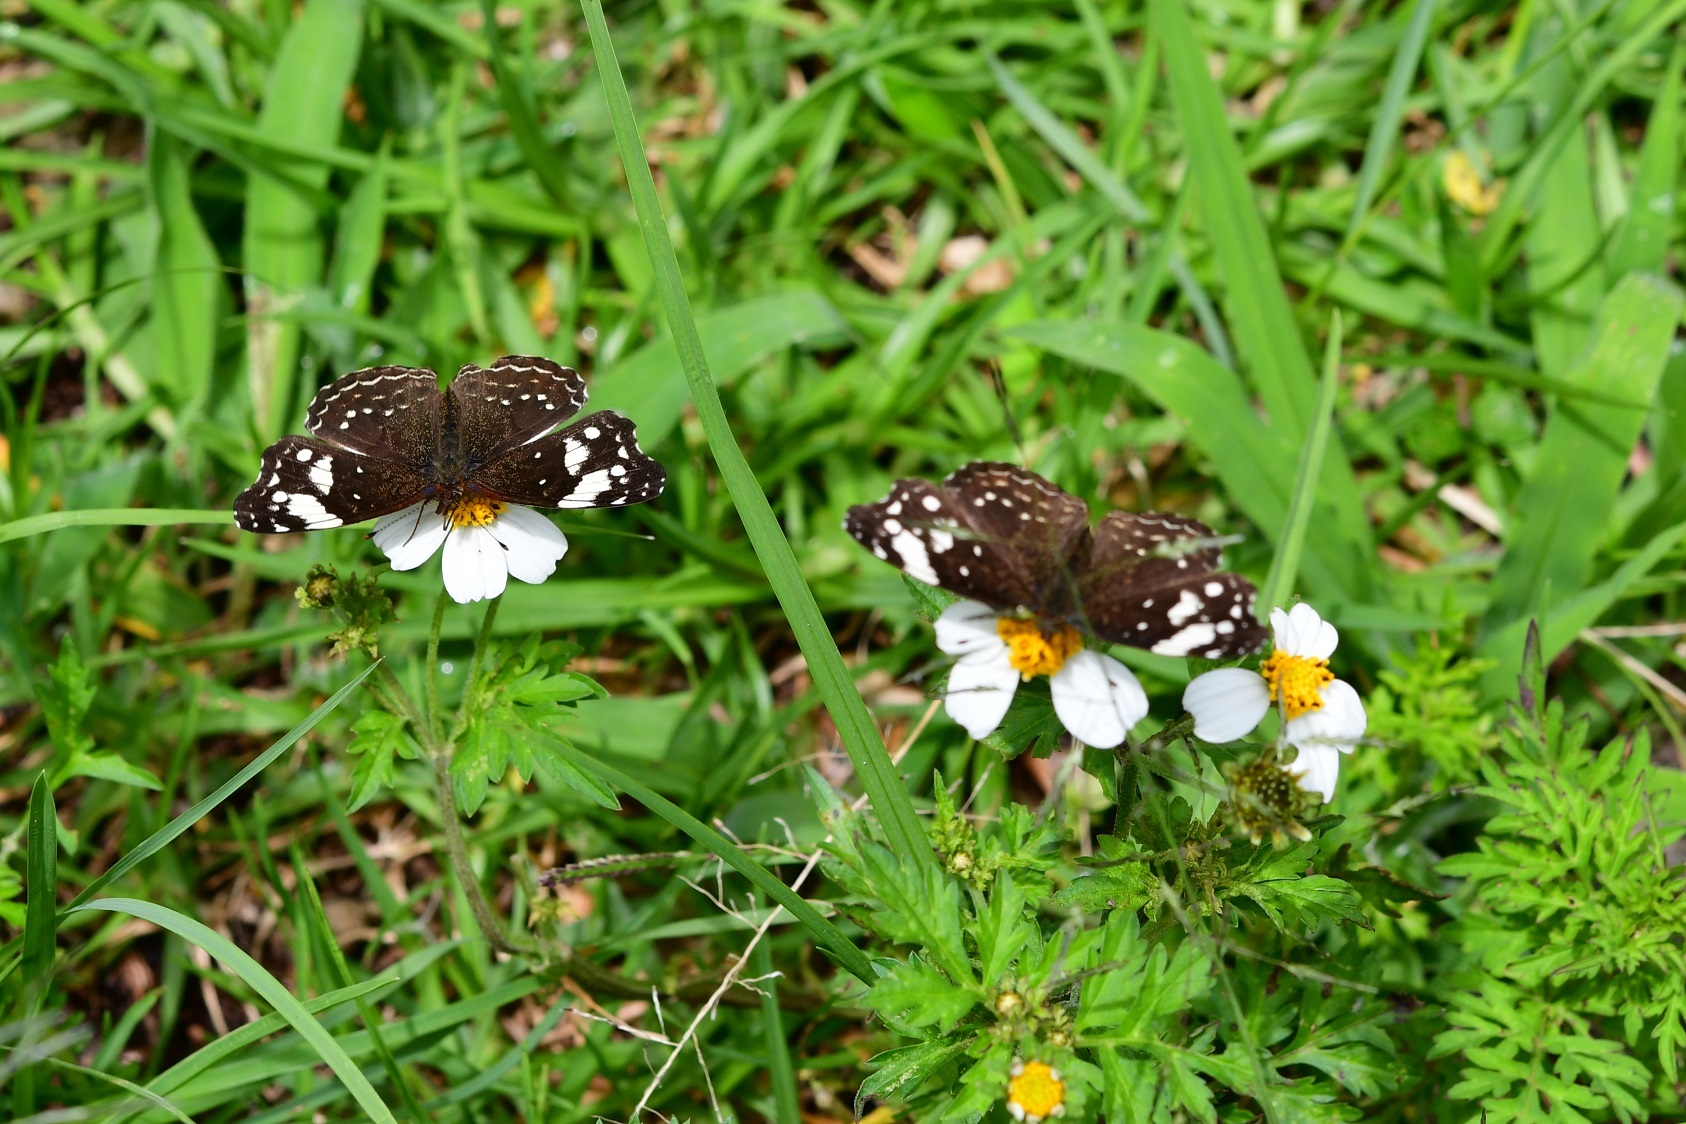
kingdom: Animalia
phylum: Arthropoda
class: Insecta
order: Lepidoptera
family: Nymphalidae
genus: Anthanassa
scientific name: Anthanassa sitalces
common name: Montane crescent
